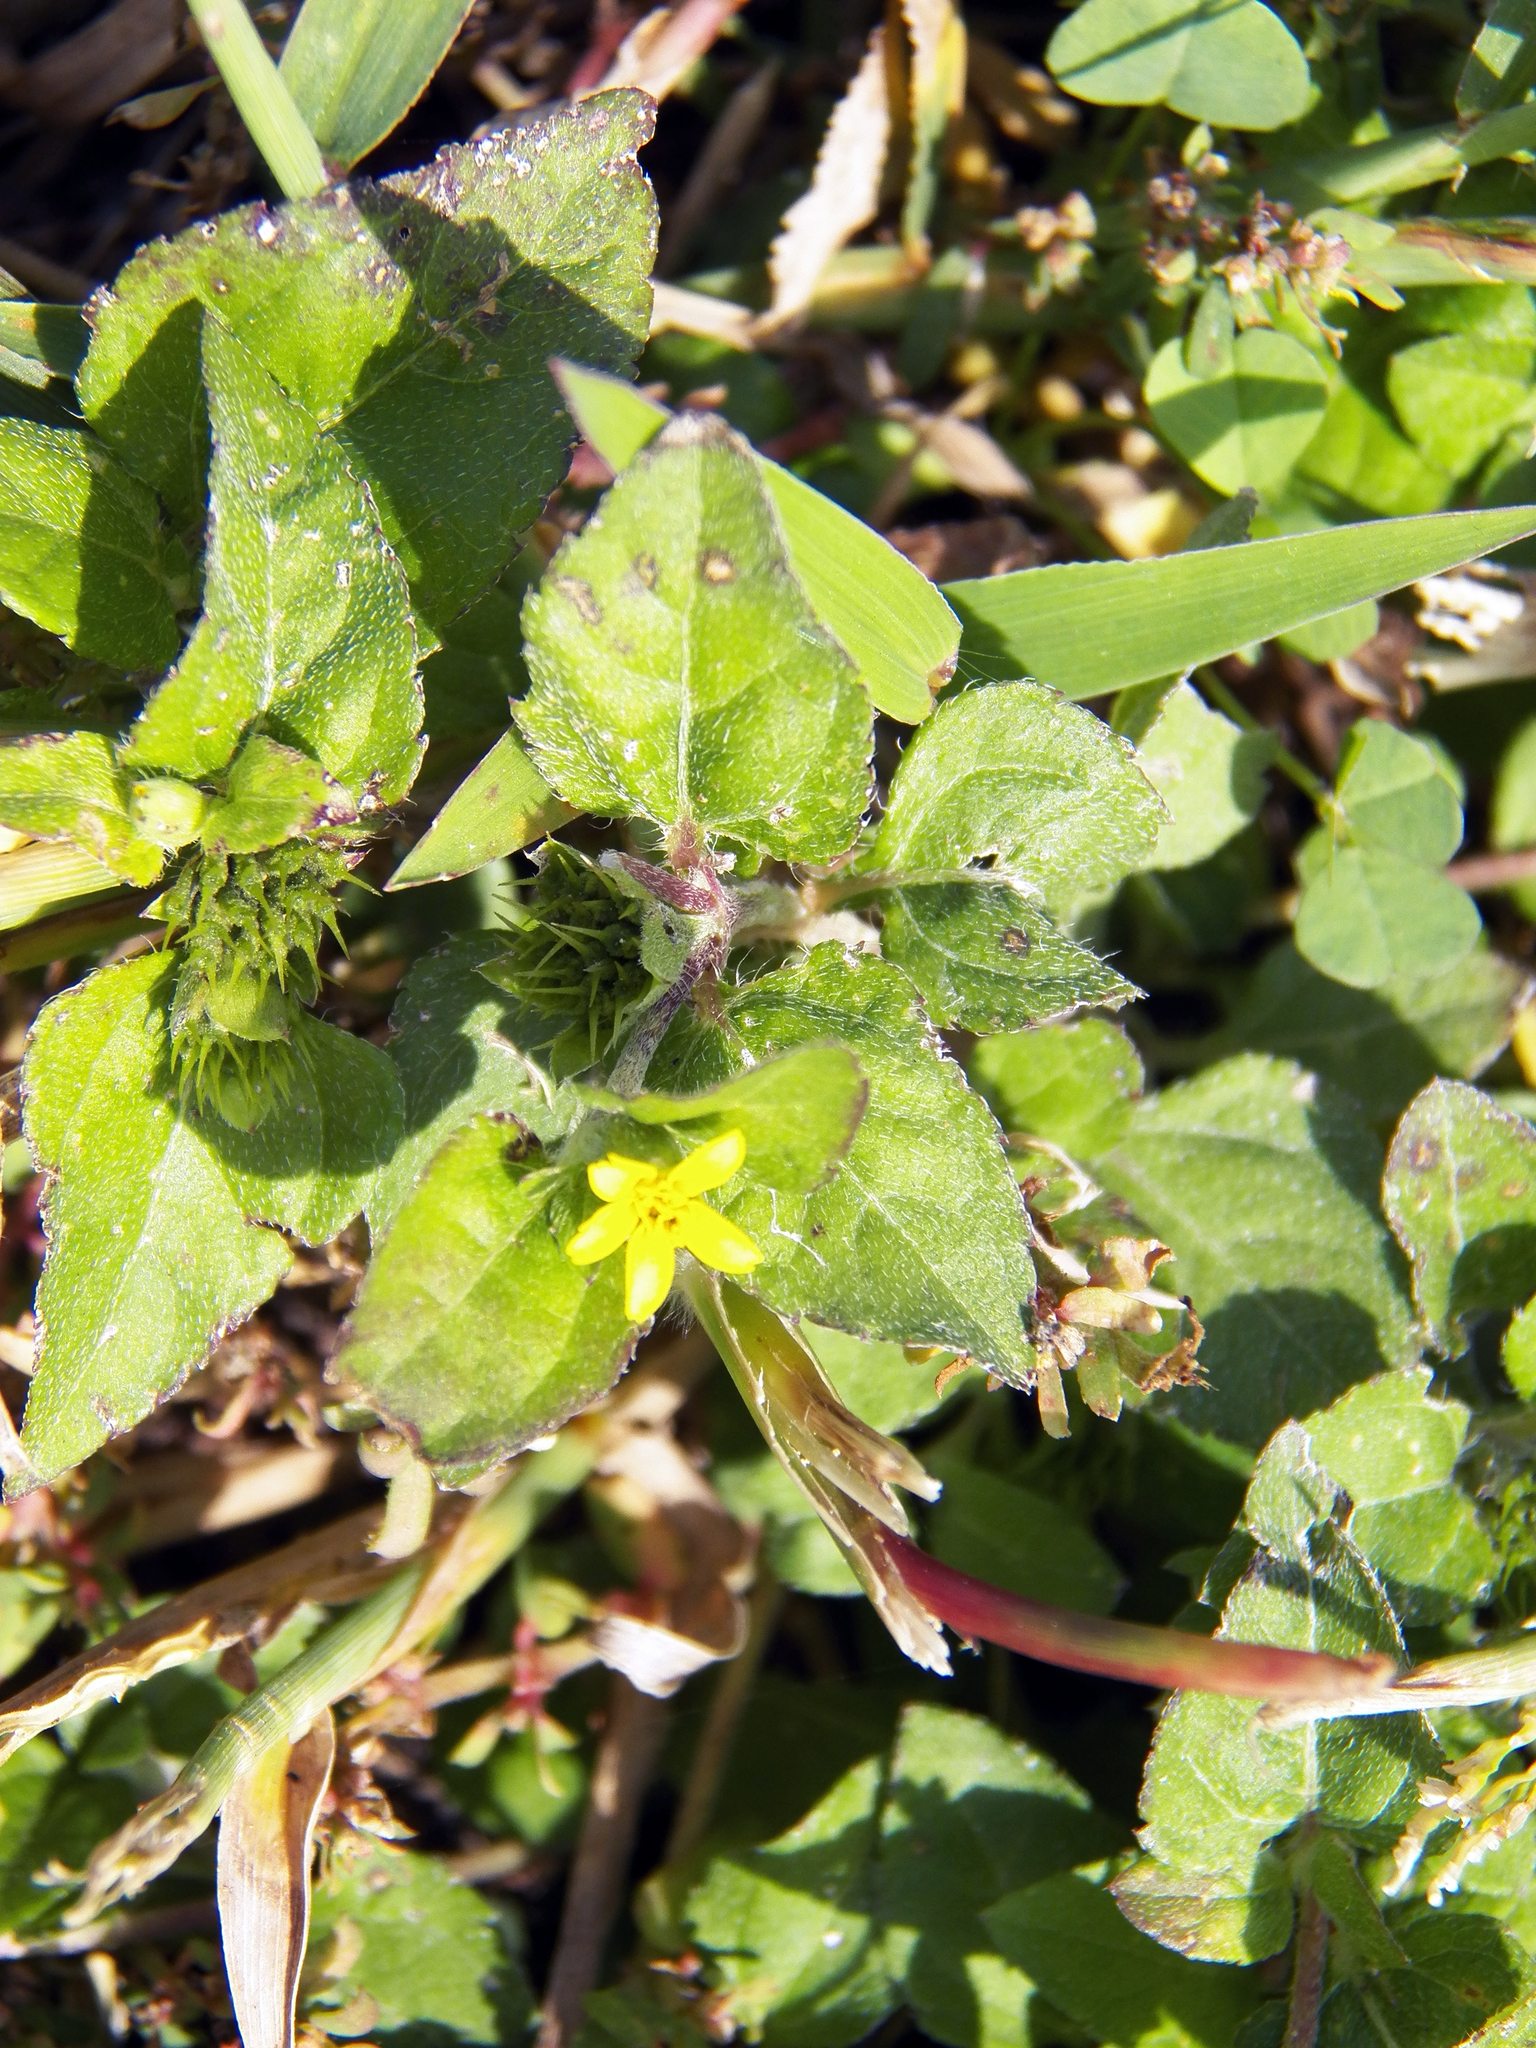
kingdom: Plantae
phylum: Tracheophyta
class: Magnoliopsida
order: Asterales
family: Asteraceae
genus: Calyptocarpus
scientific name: Calyptocarpus vialis
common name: Straggler daisy
